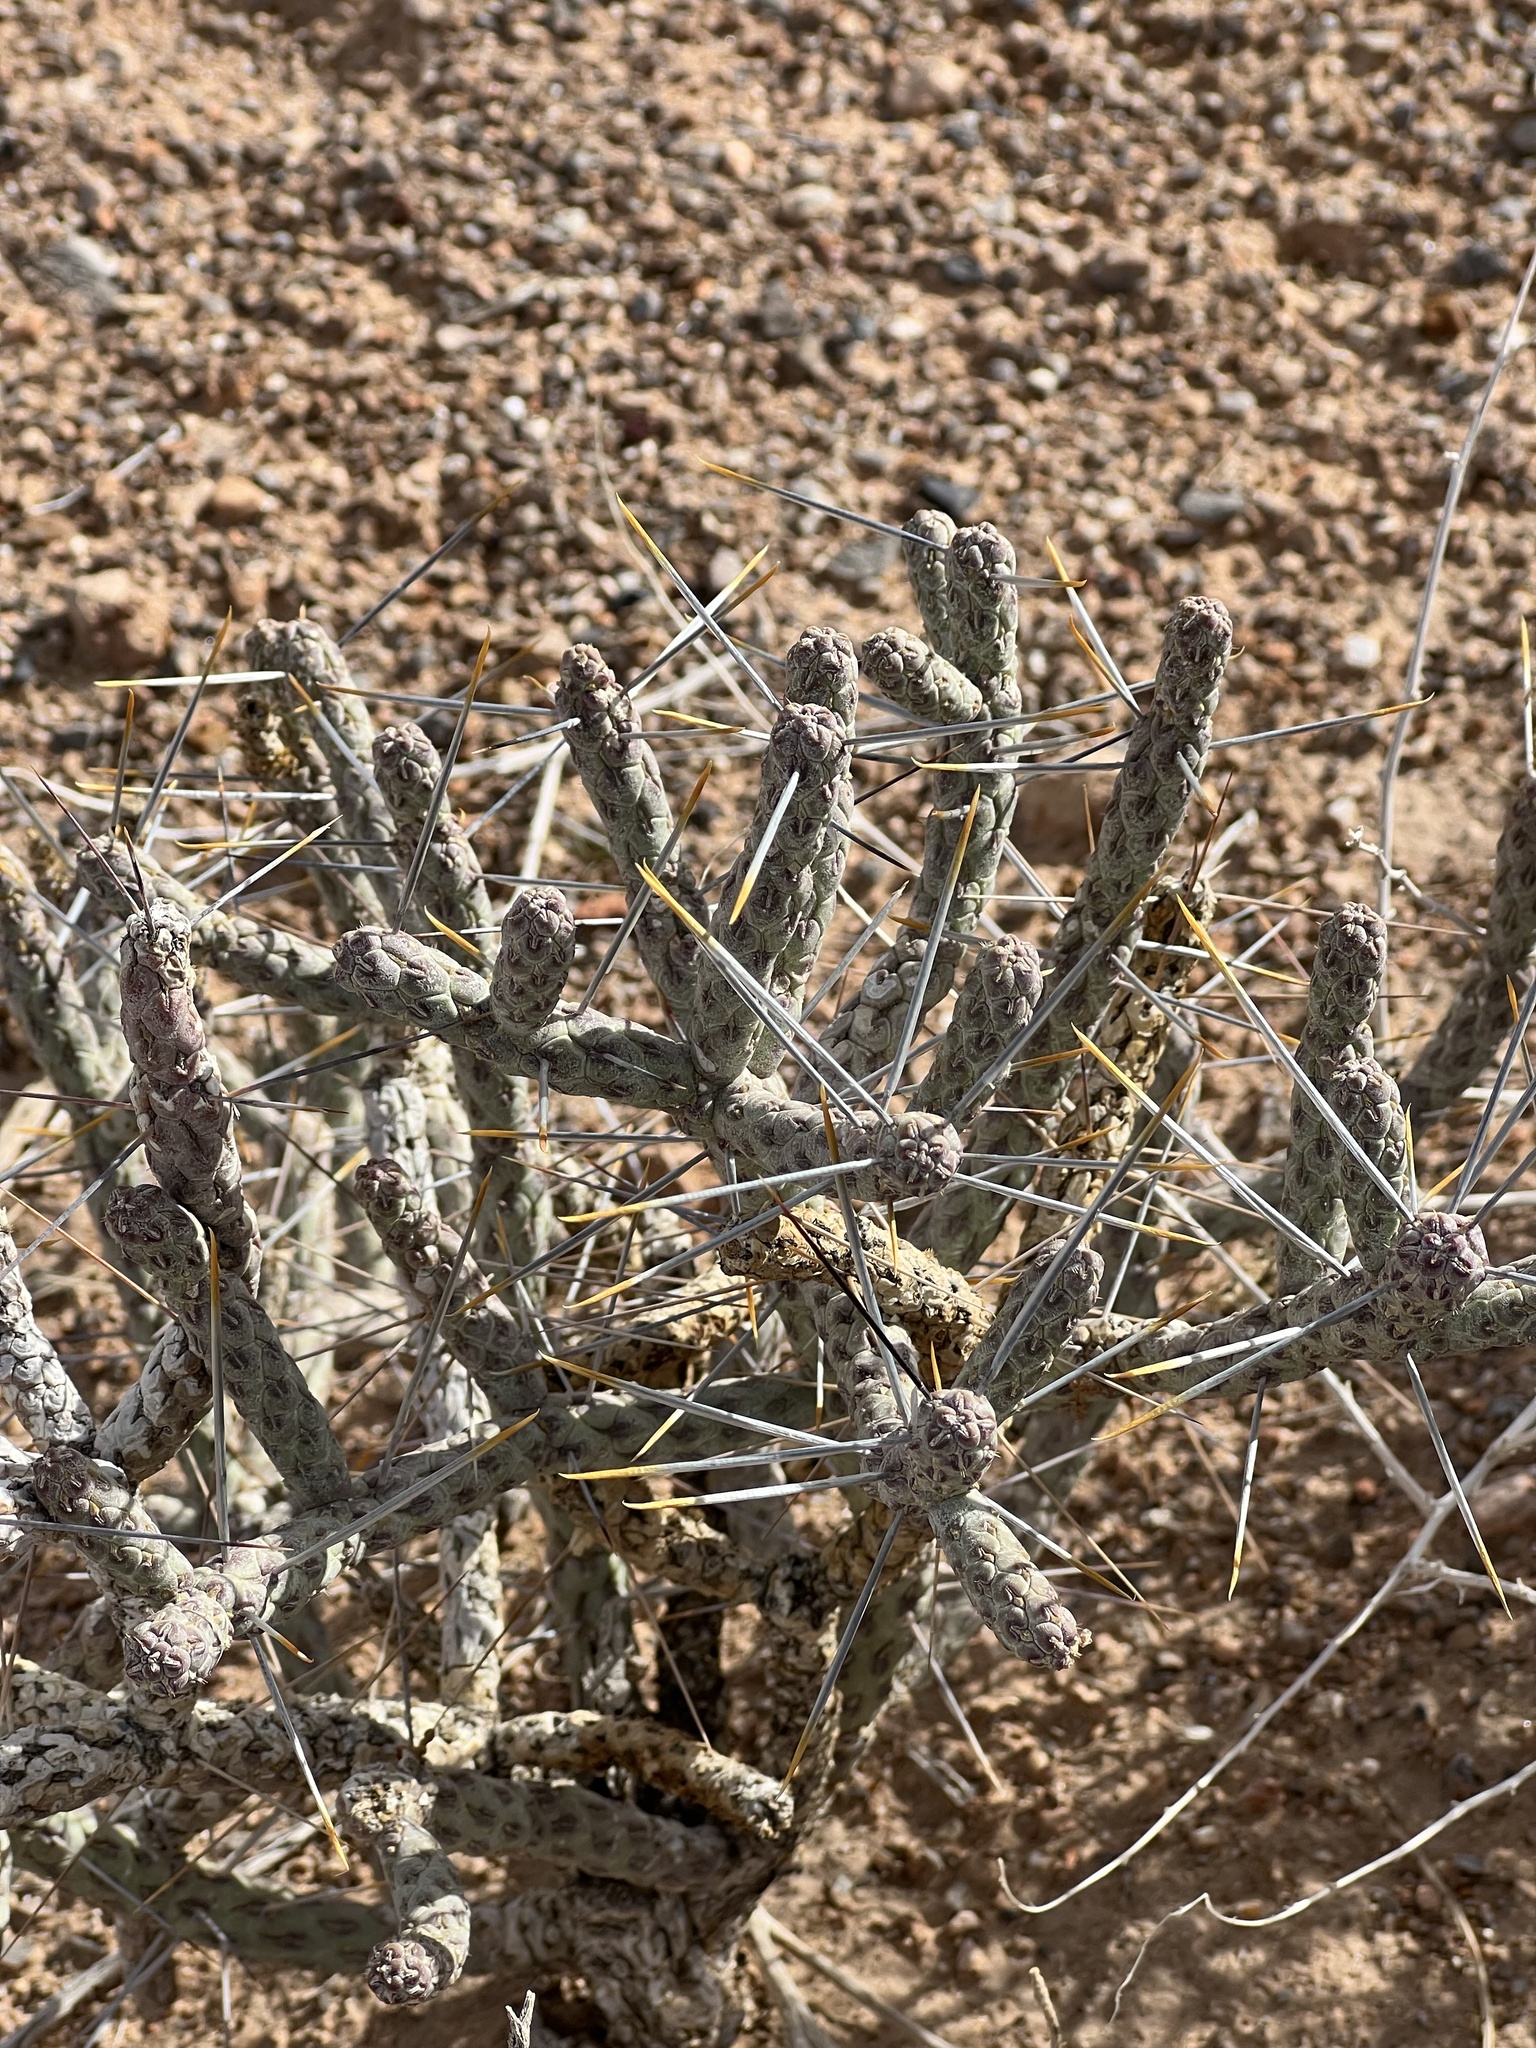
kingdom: Plantae
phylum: Tracheophyta
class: Magnoliopsida
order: Caryophyllales
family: Cactaceae
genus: Cylindropuntia
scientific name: Cylindropuntia ramosissima
